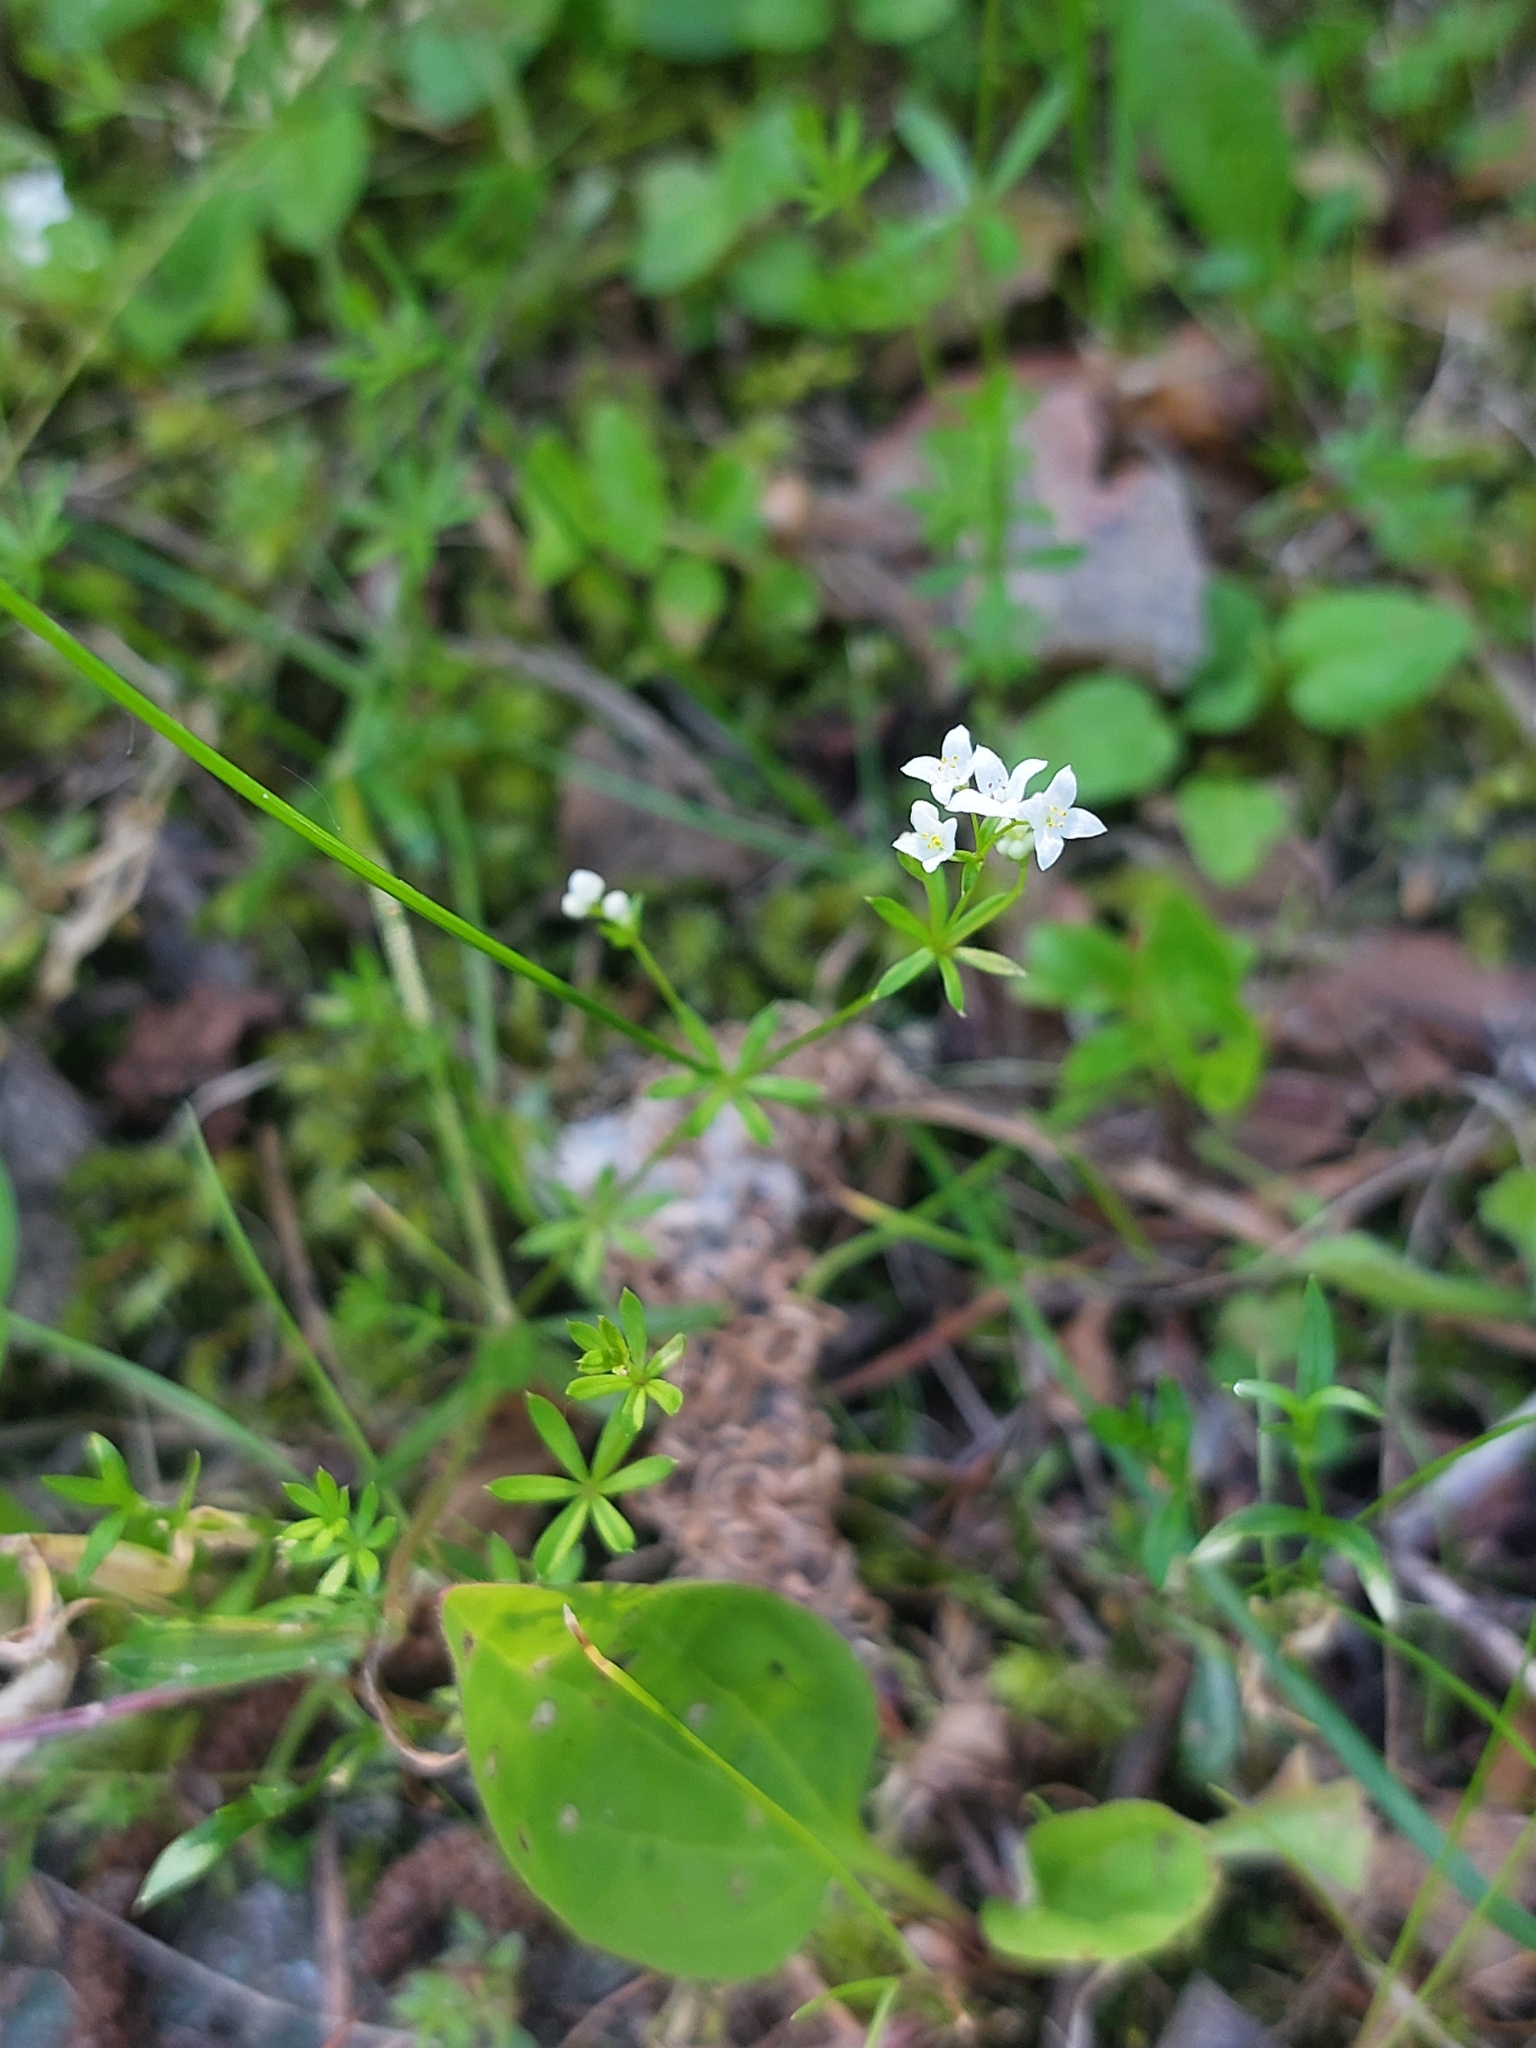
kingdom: Plantae
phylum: Tracheophyta
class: Magnoliopsida
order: Gentianales
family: Rubiaceae
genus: Galium
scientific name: Galium uliginosum
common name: Fen bedstraw
